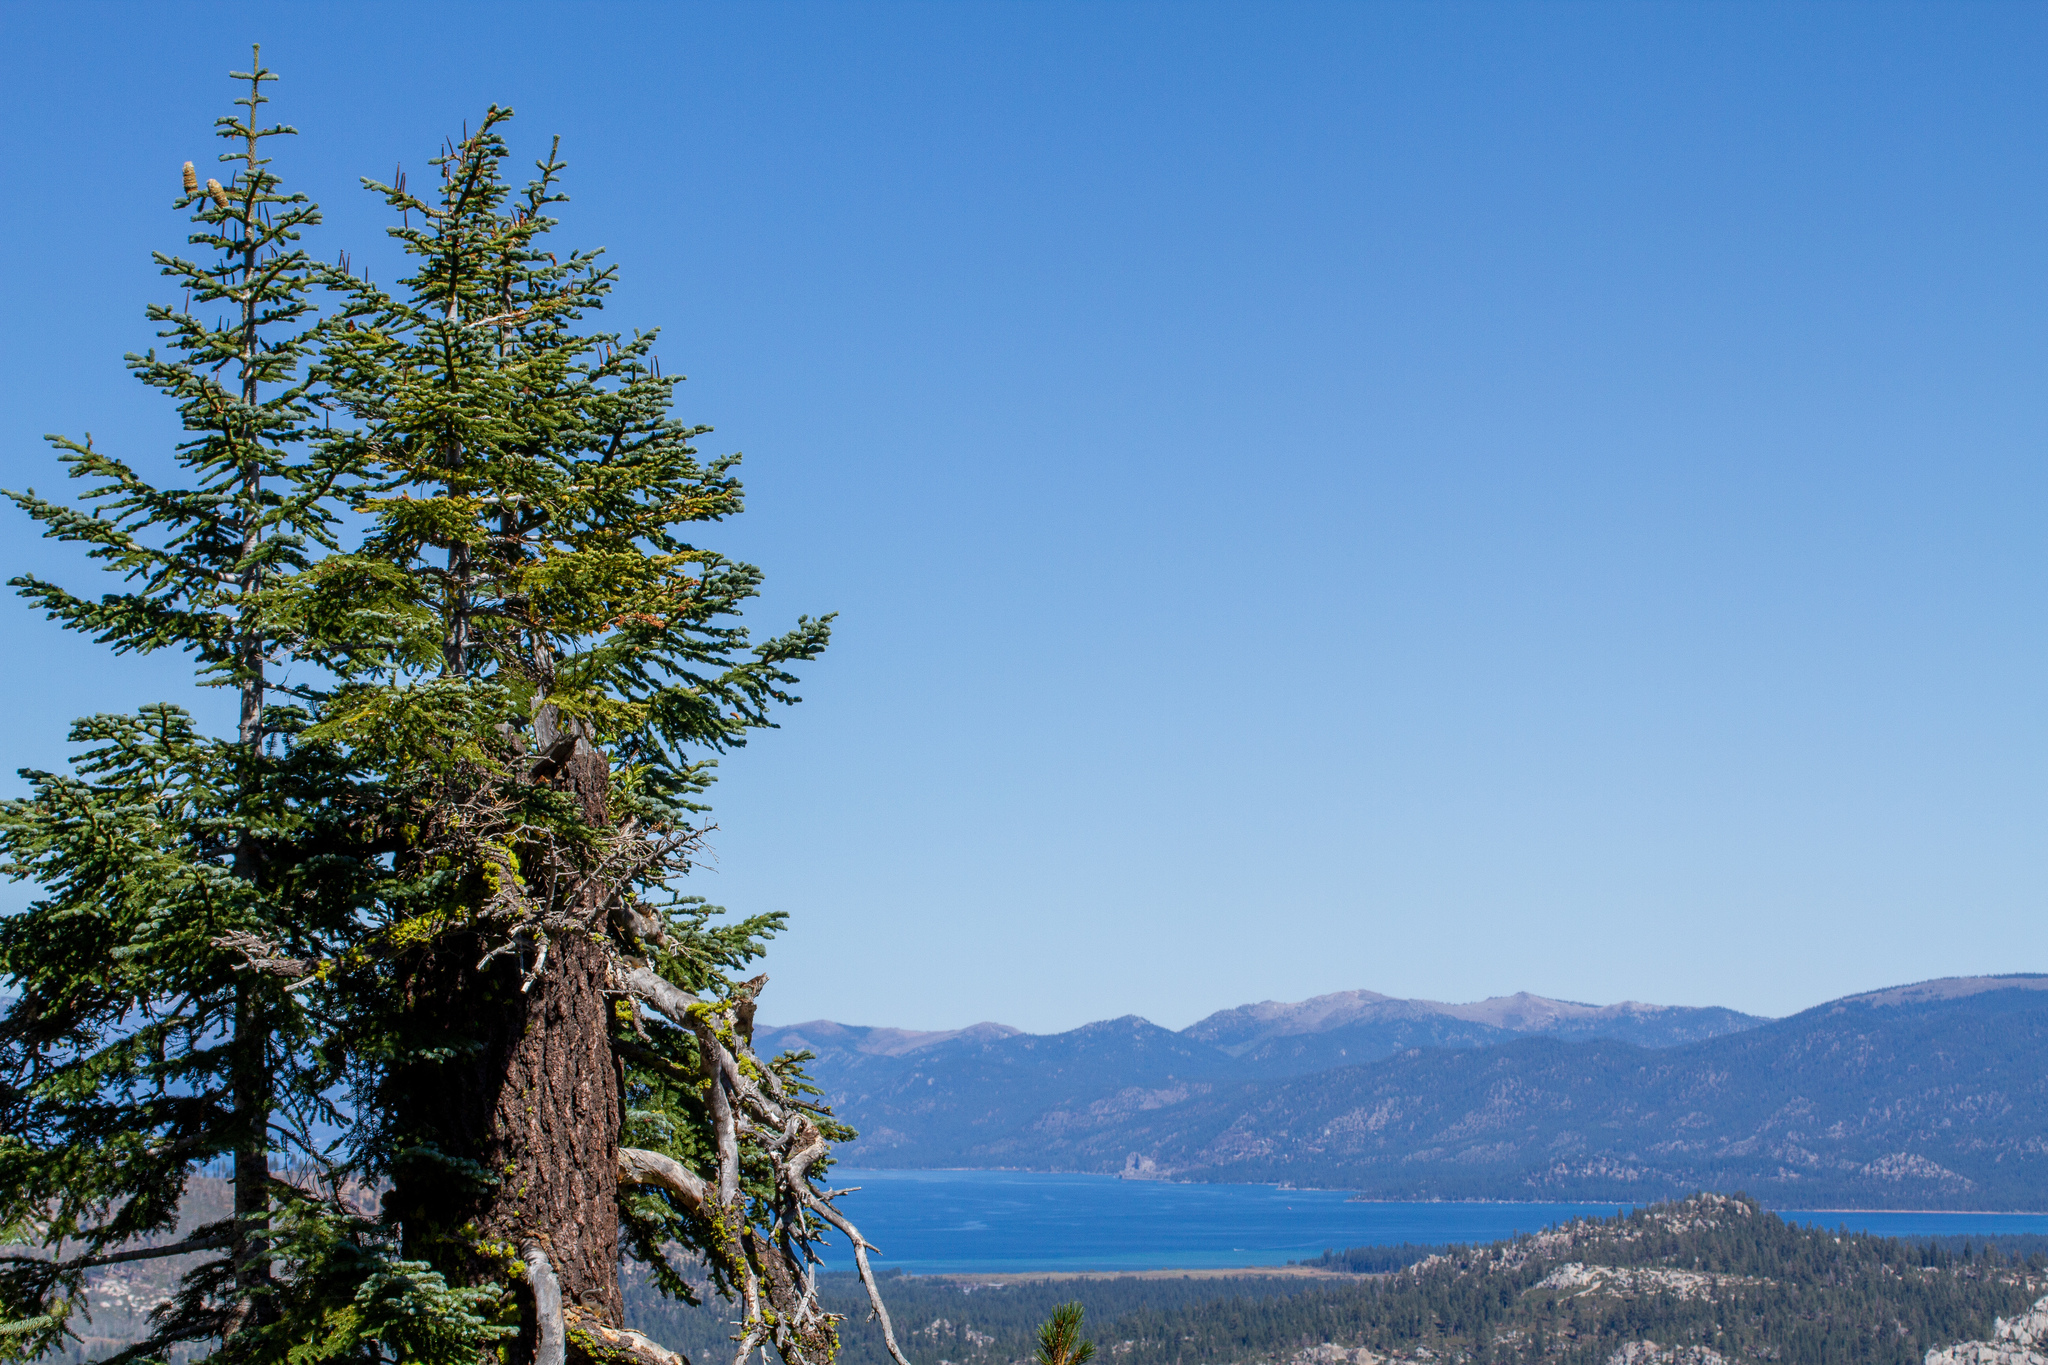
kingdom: Plantae
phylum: Tracheophyta
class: Pinopsida
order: Pinales
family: Pinaceae
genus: Abies
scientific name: Abies magnifica bis
